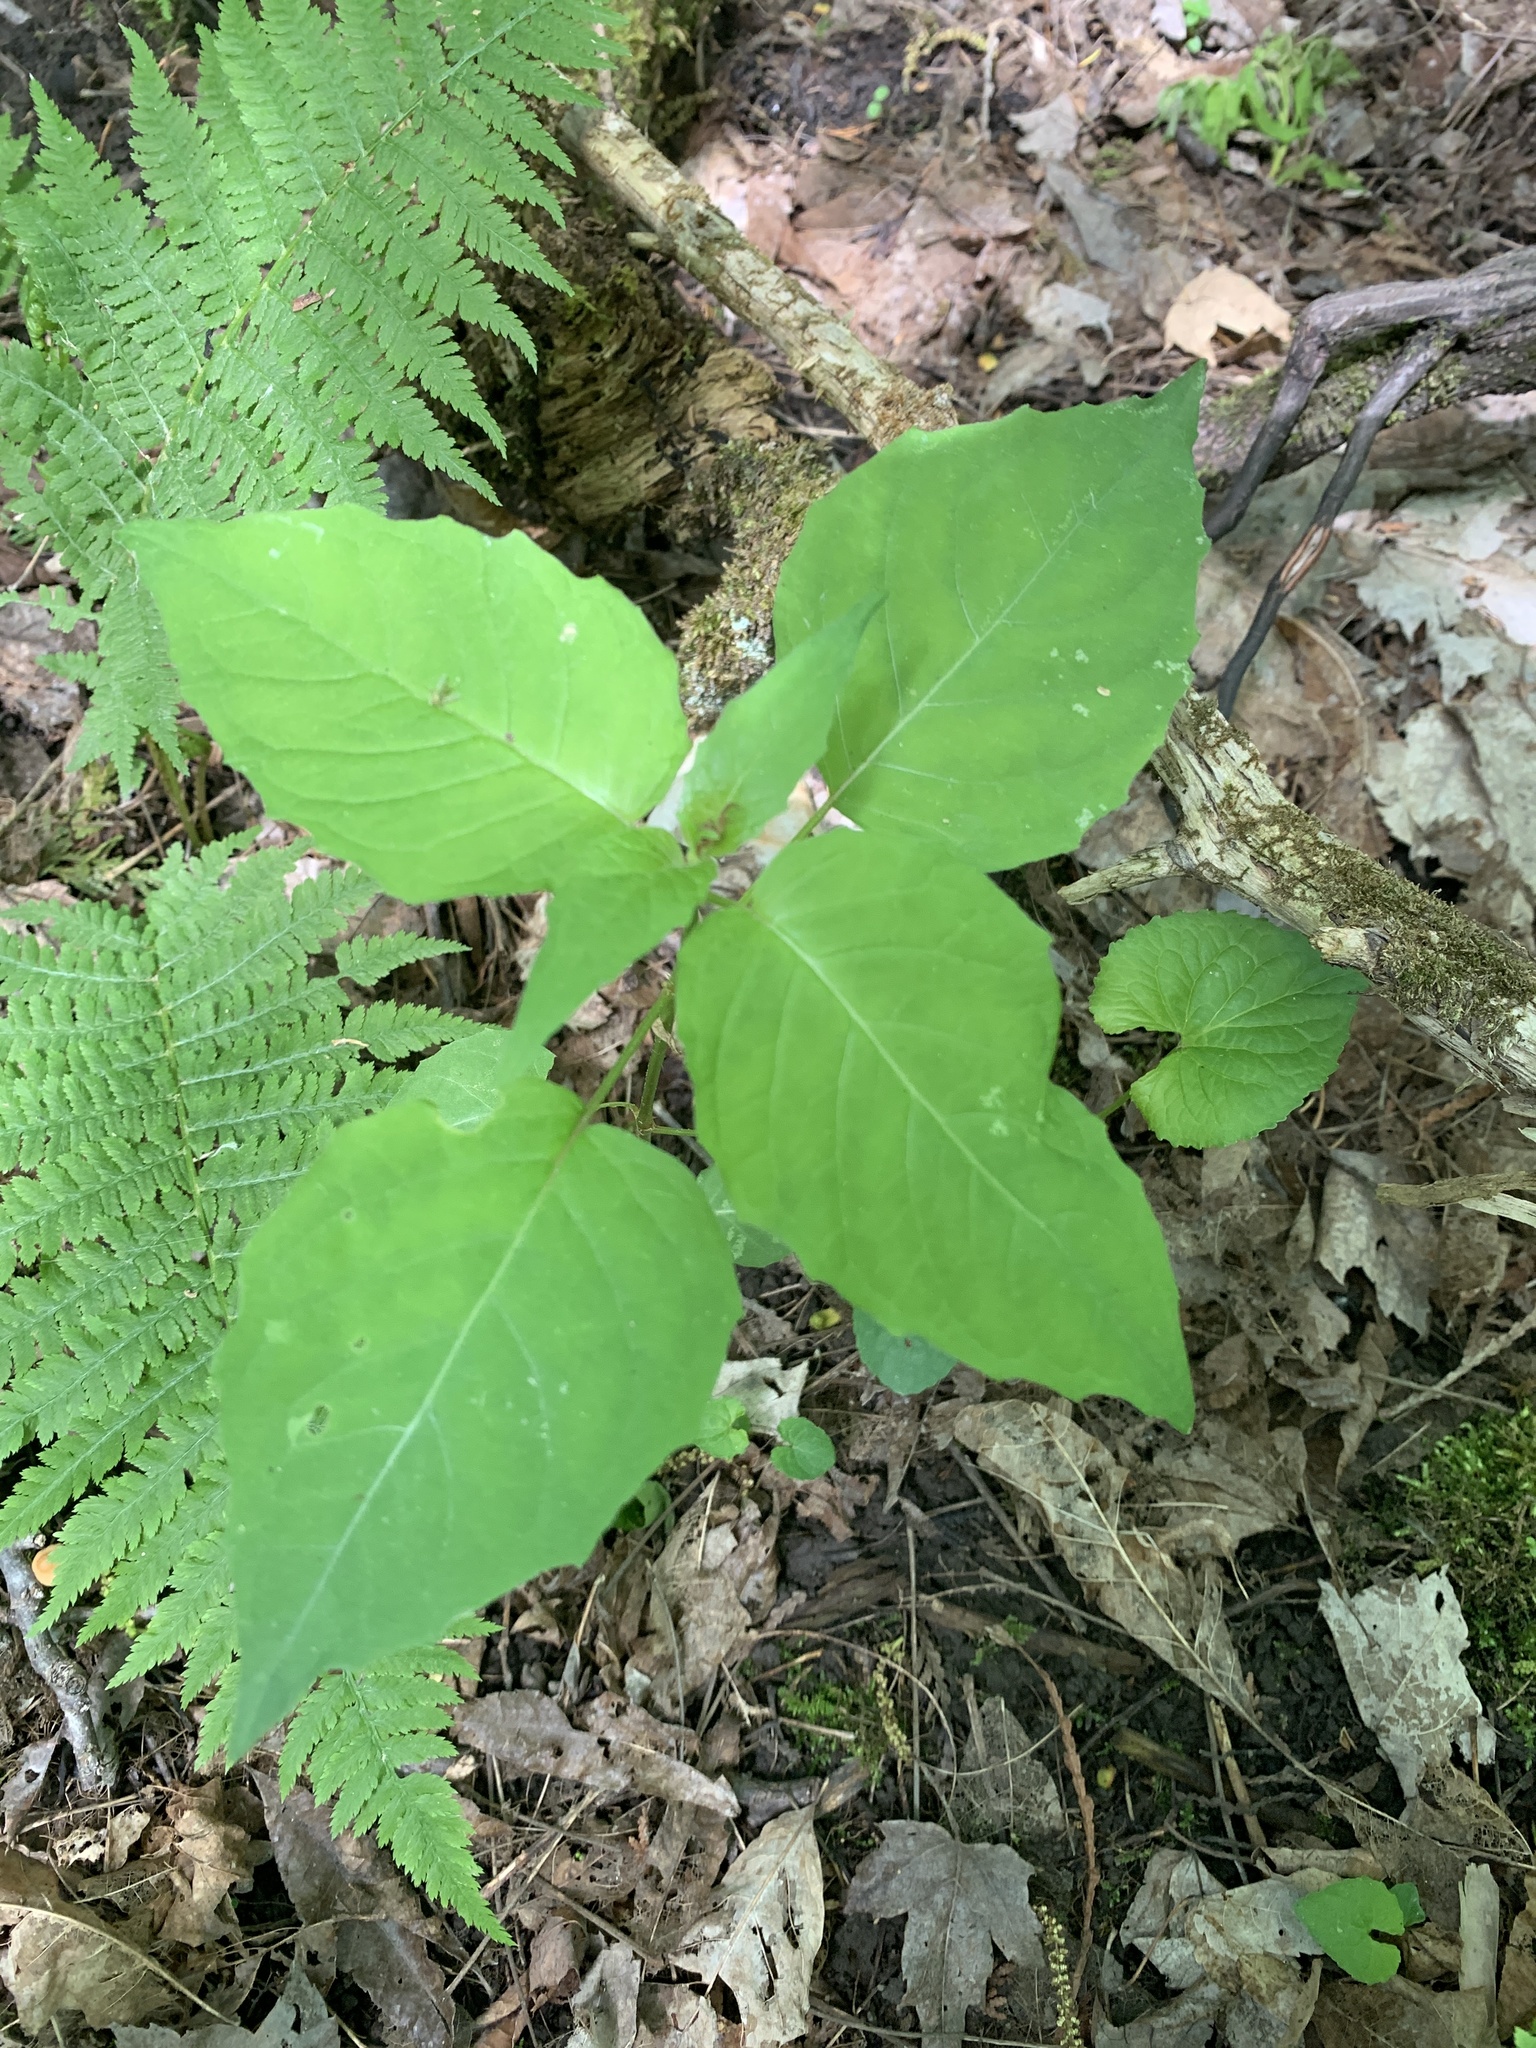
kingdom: Plantae
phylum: Tracheophyta
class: Magnoliopsida
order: Myrtales
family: Onagraceae
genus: Circaea
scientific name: Circaea canadensis
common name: Broad-leaved enchanter's nightshade
